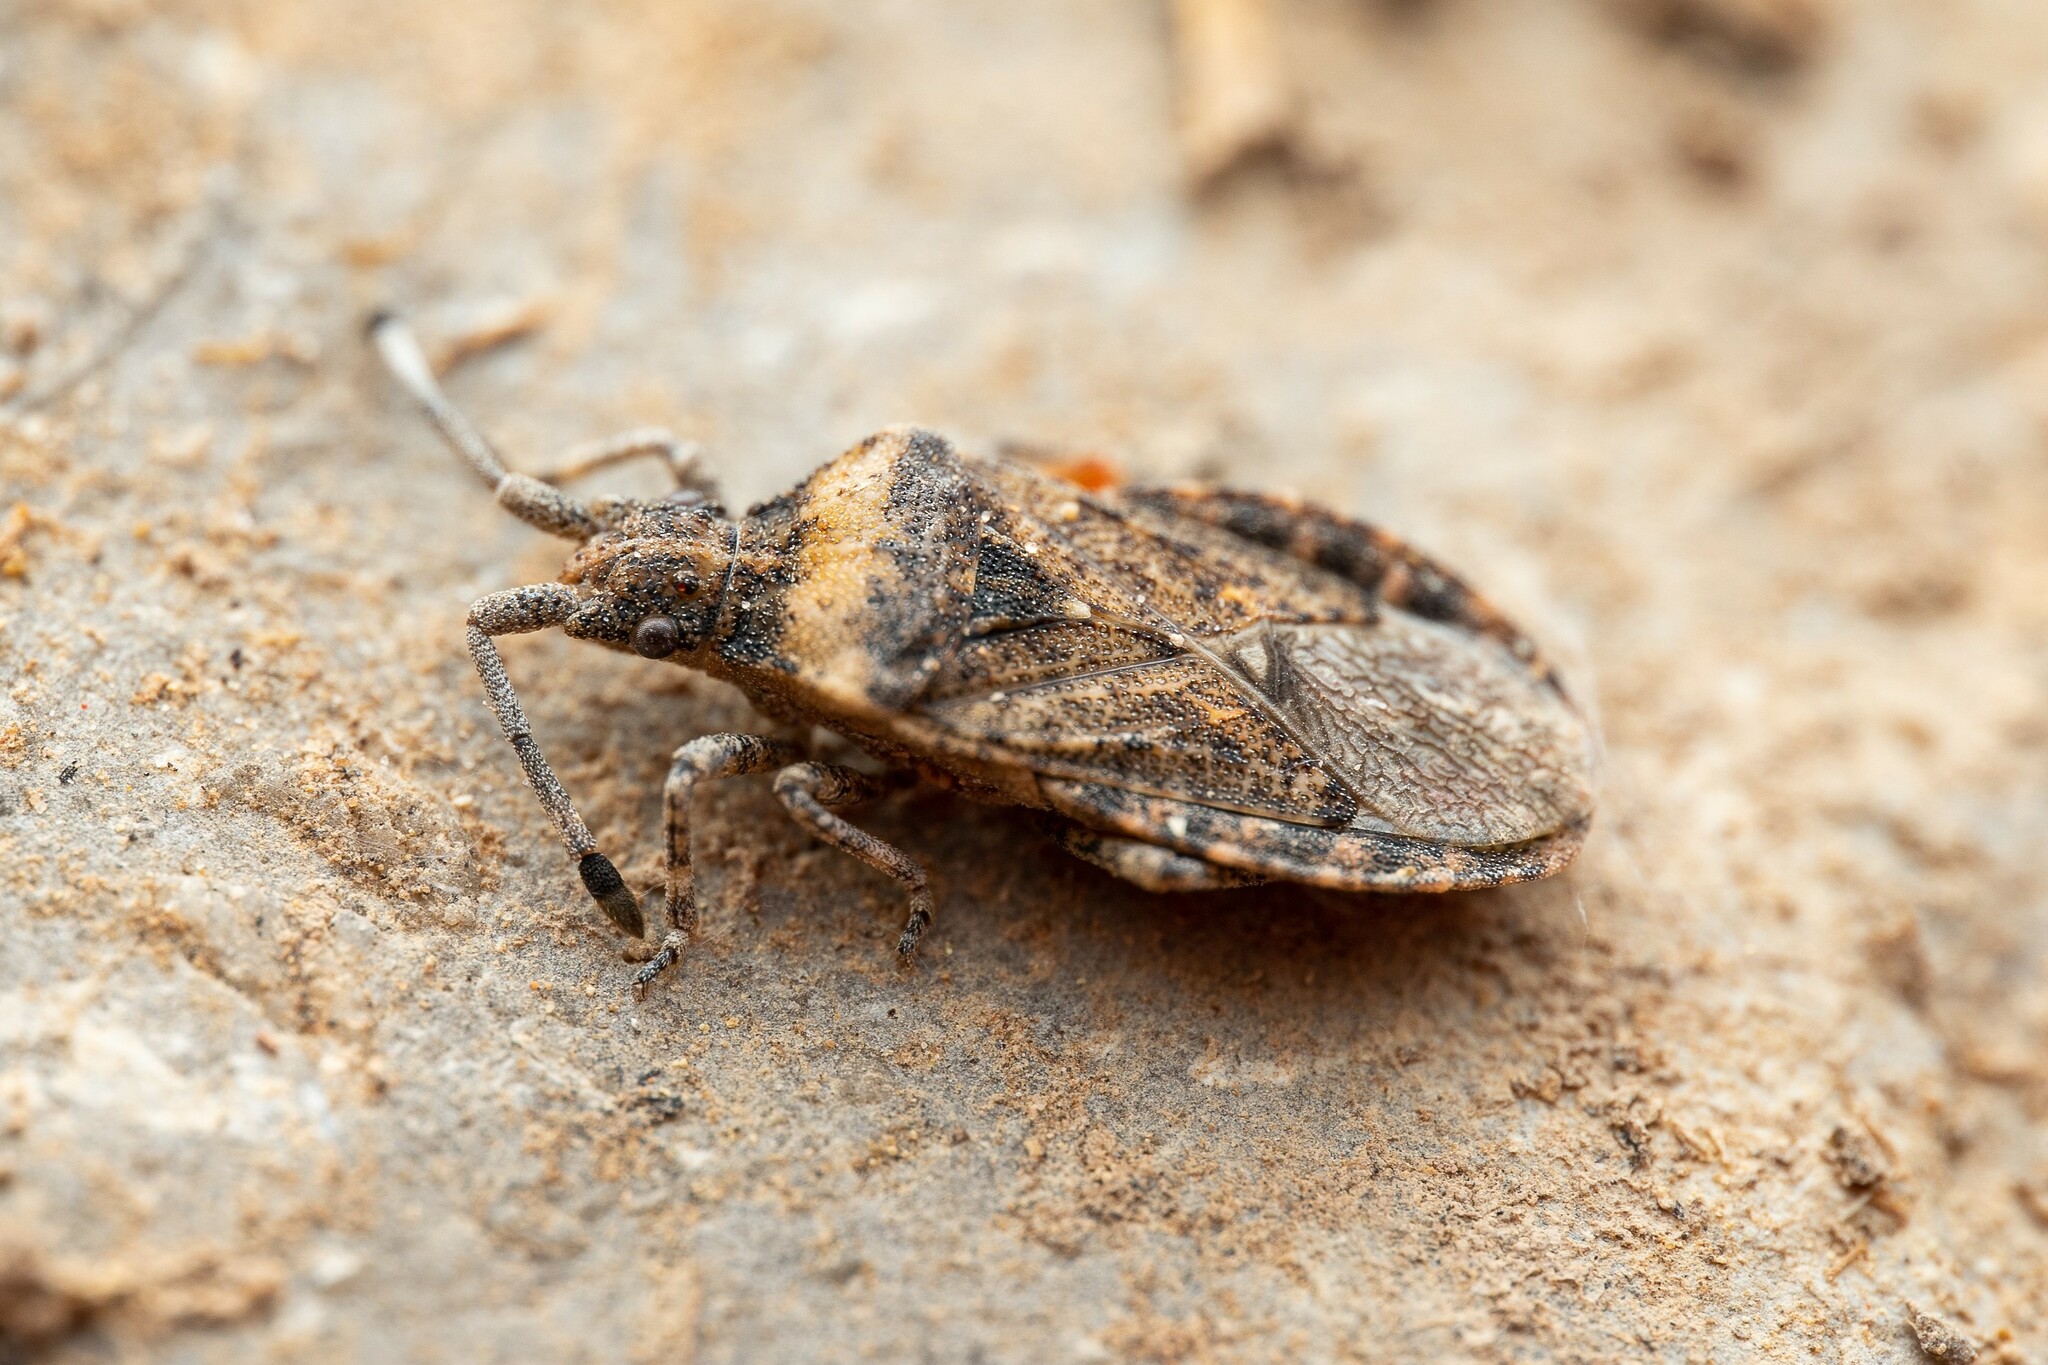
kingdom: Animalia
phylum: Arthropoda
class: Insecta
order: Hemiptera
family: Coreidae
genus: Scolopocerus
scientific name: Scolopocerus uhleri
